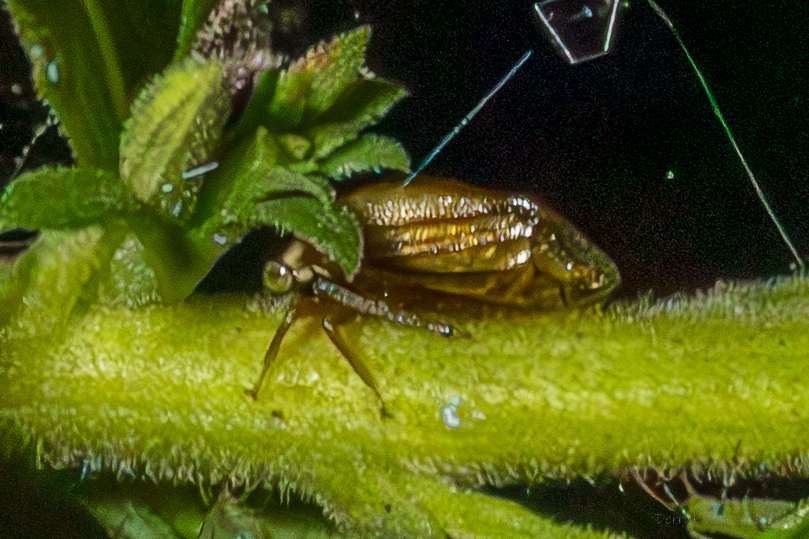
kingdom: Animalia
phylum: Arthropoda
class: Insecta
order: Hemiptera
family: Membracidae
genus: Acutalis
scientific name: Acutalis tartarea
